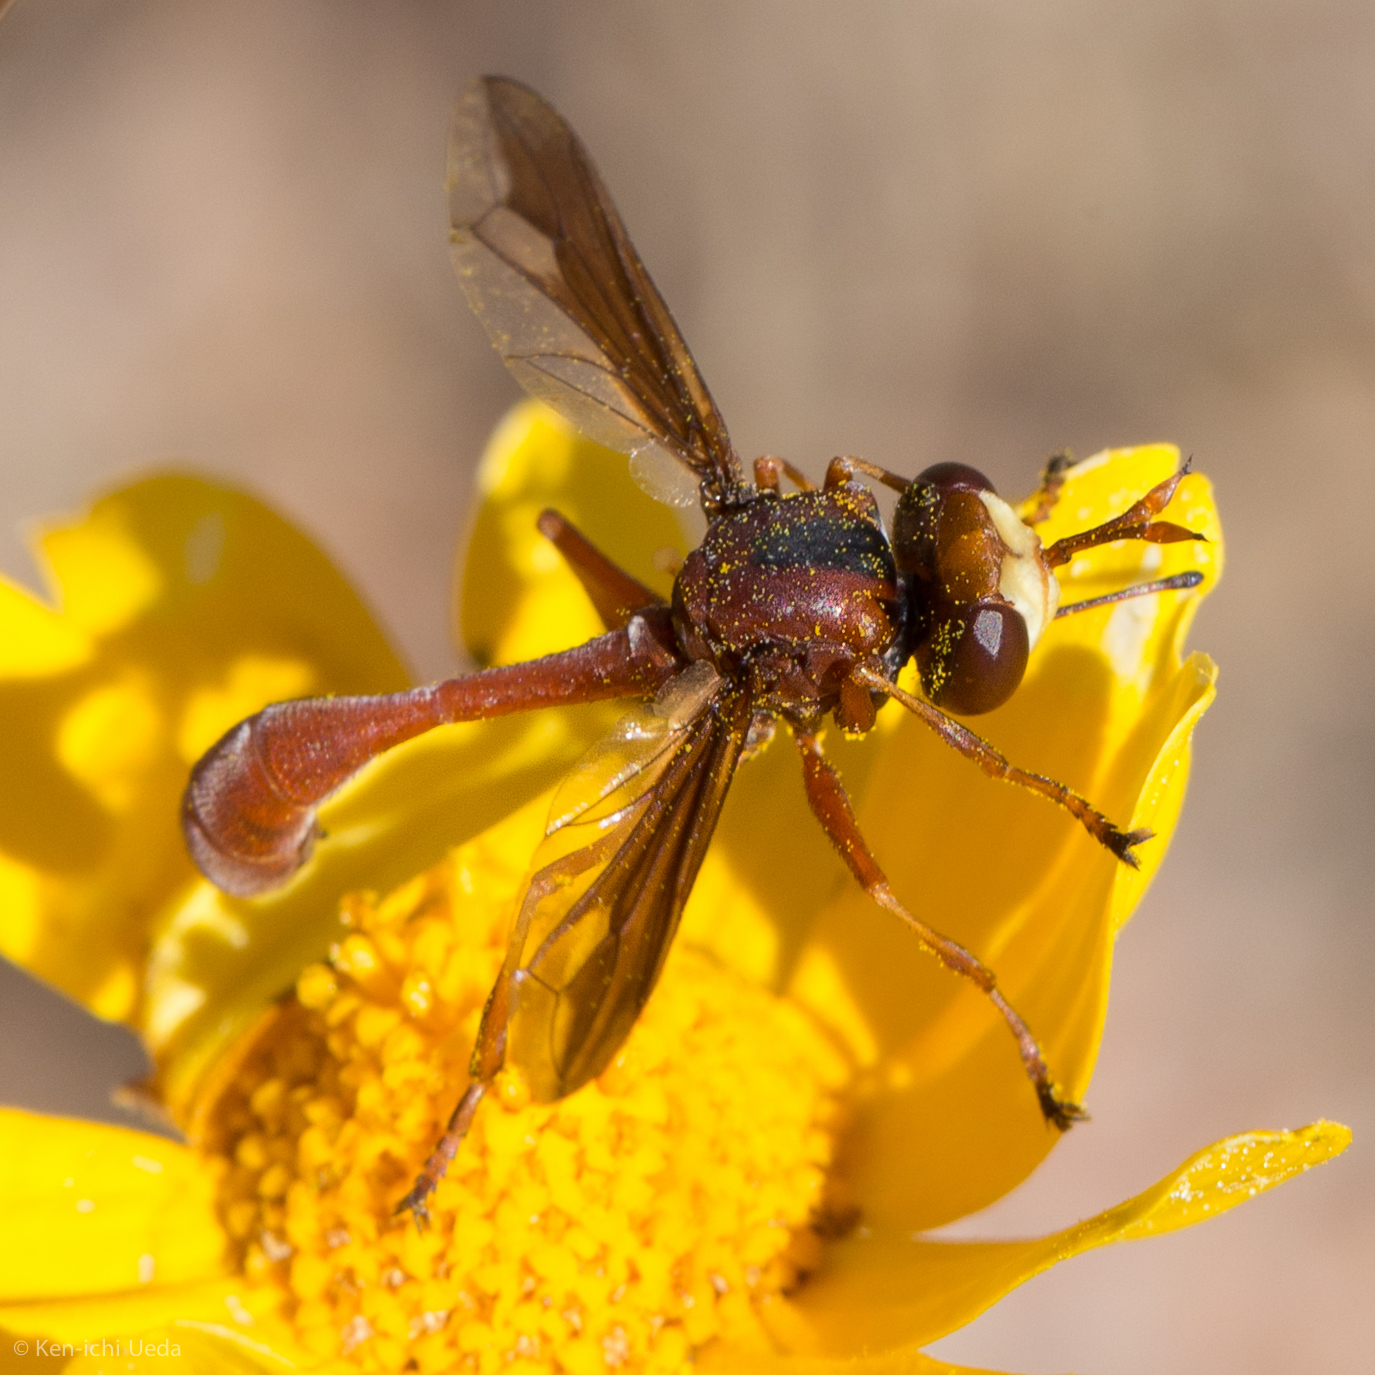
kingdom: Animalia
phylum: Arthropoda
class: Insecta
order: Diptera
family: Conopidae
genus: Physocephala
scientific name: Physocephala burgessi
